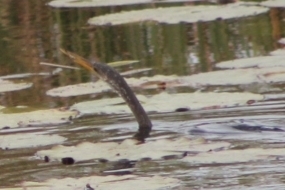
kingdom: Animalia
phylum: Chordata
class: Aves
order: Suliformes
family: Anhingidae
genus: Anhinga
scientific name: Anhinga anhinga
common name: Anhinga
